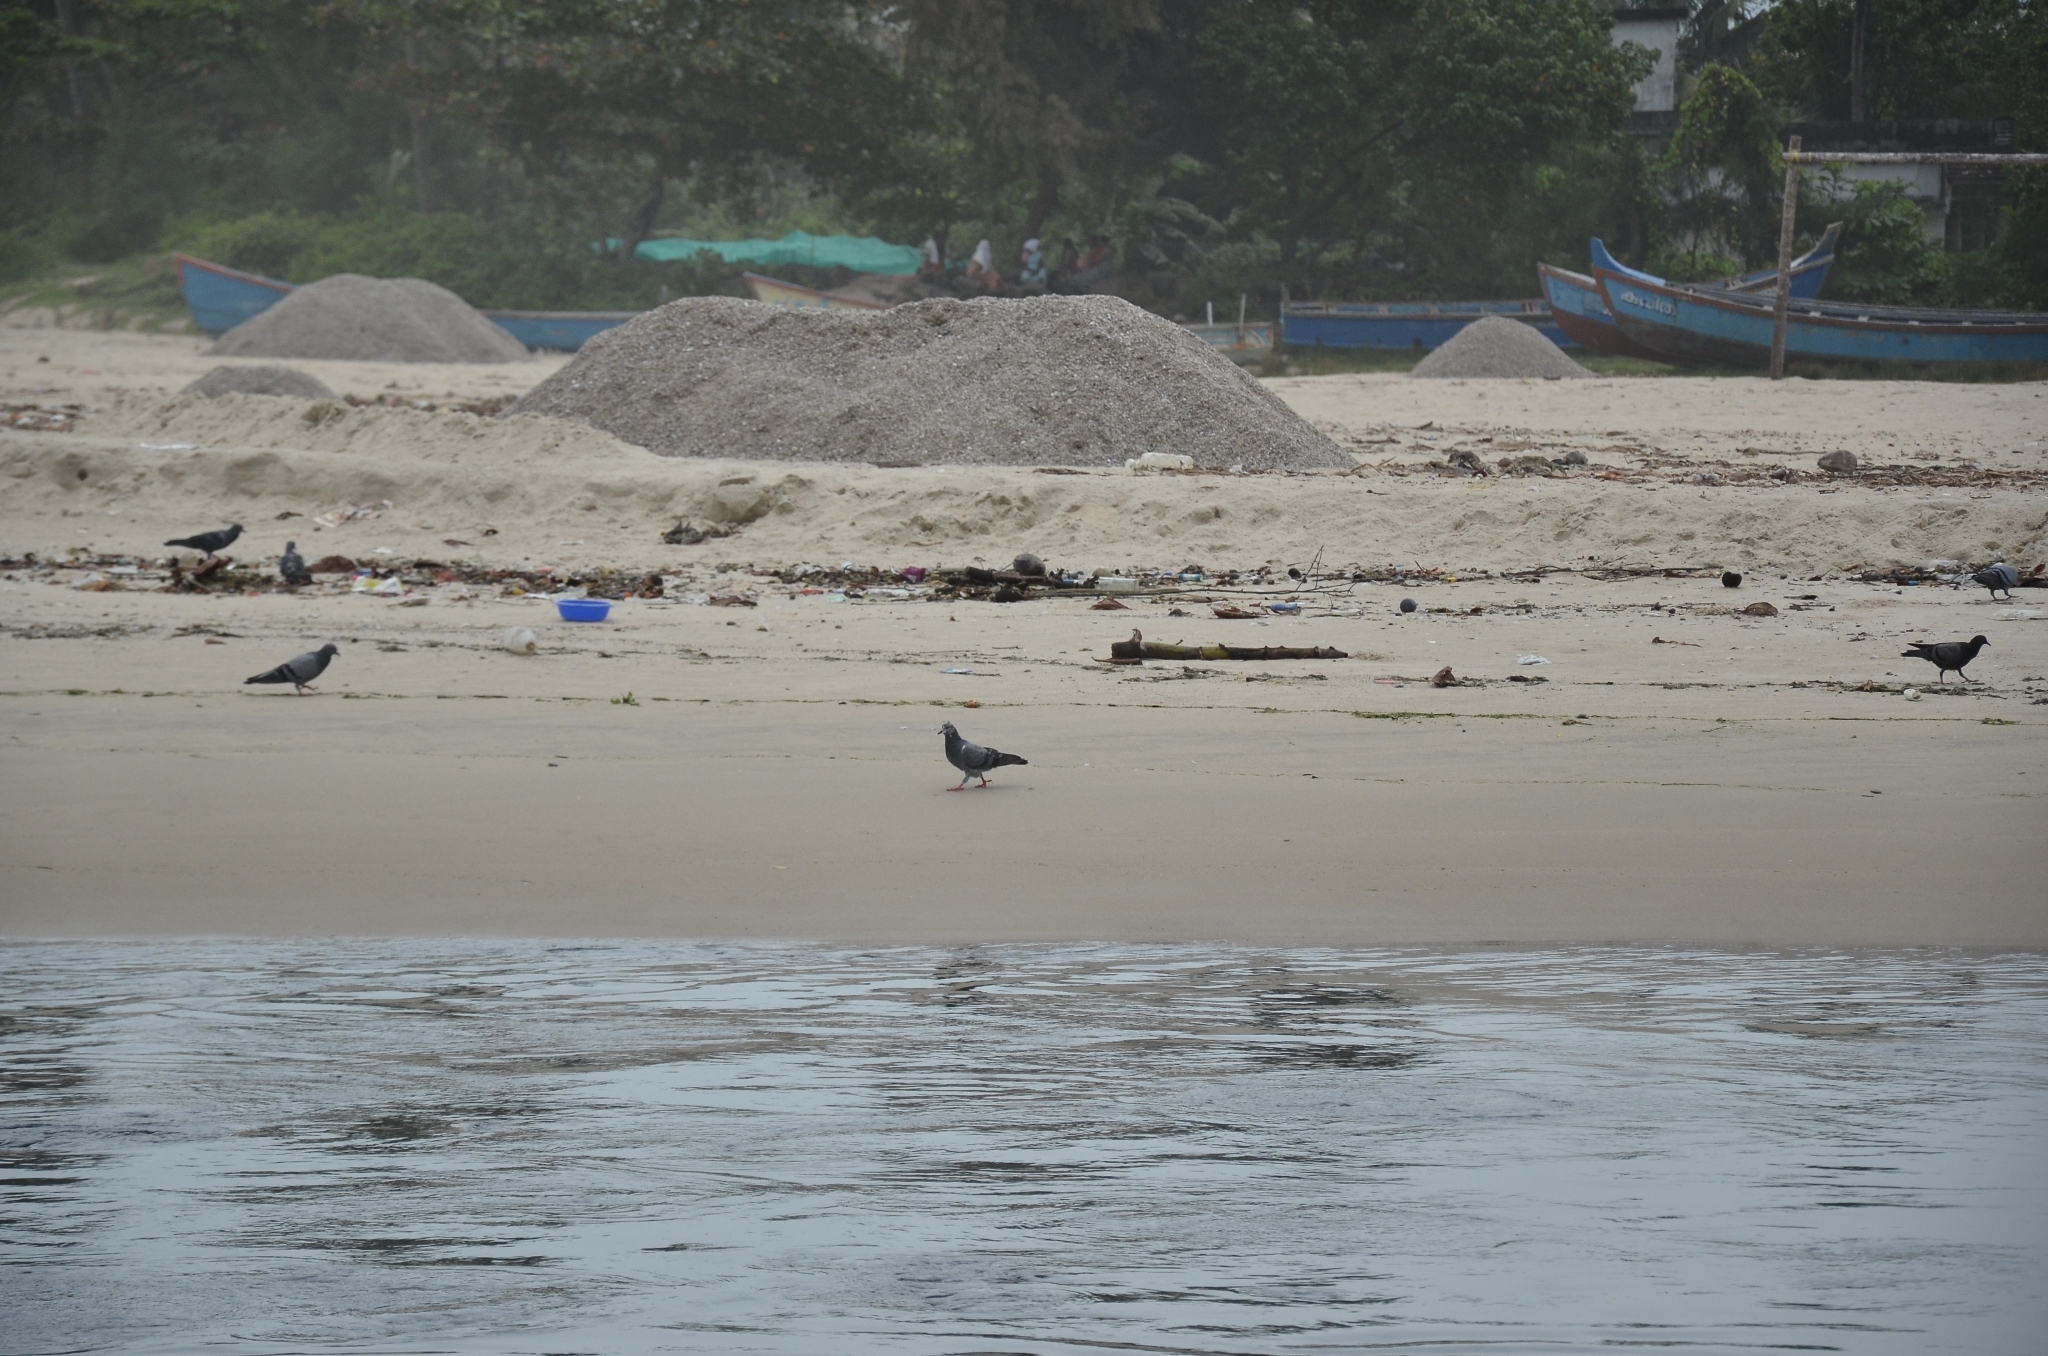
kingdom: Animalia
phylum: Chordata
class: Aves
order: Columbiformes
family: Columbidae
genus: Columba
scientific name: Columba livia
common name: Rock pigeon
